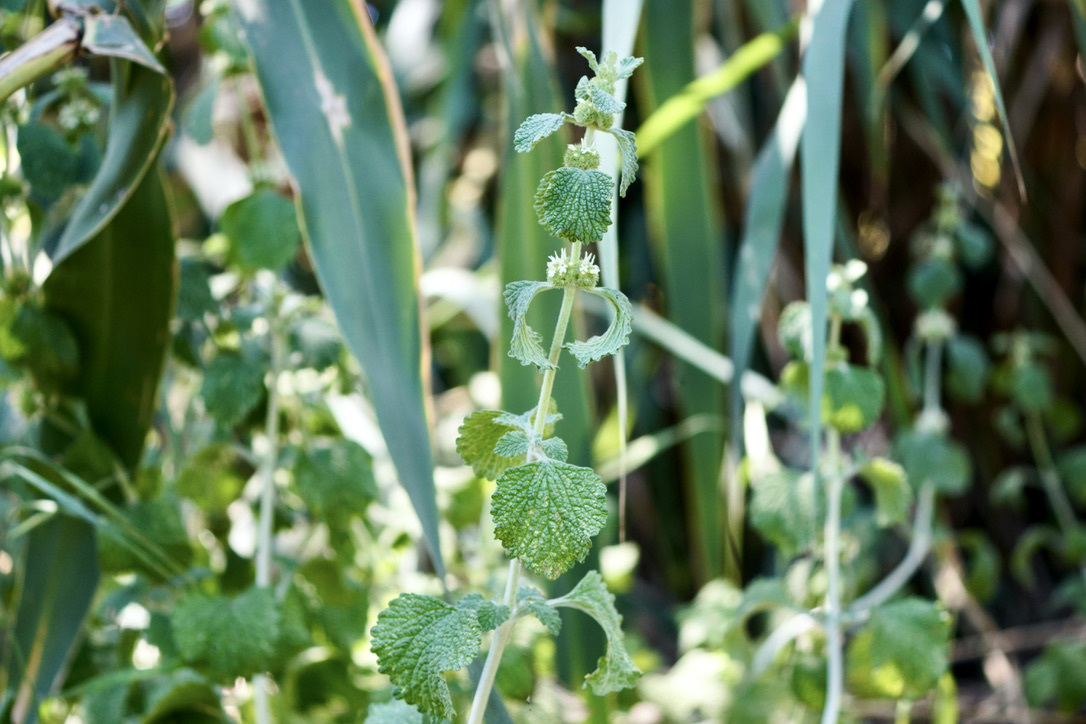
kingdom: Plantae
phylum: Tracheophyta
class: Magnoliopsida
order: Lamiales
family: Lamiaceae
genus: Marrubium
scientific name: Marrubium vulgare
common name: Horehound
